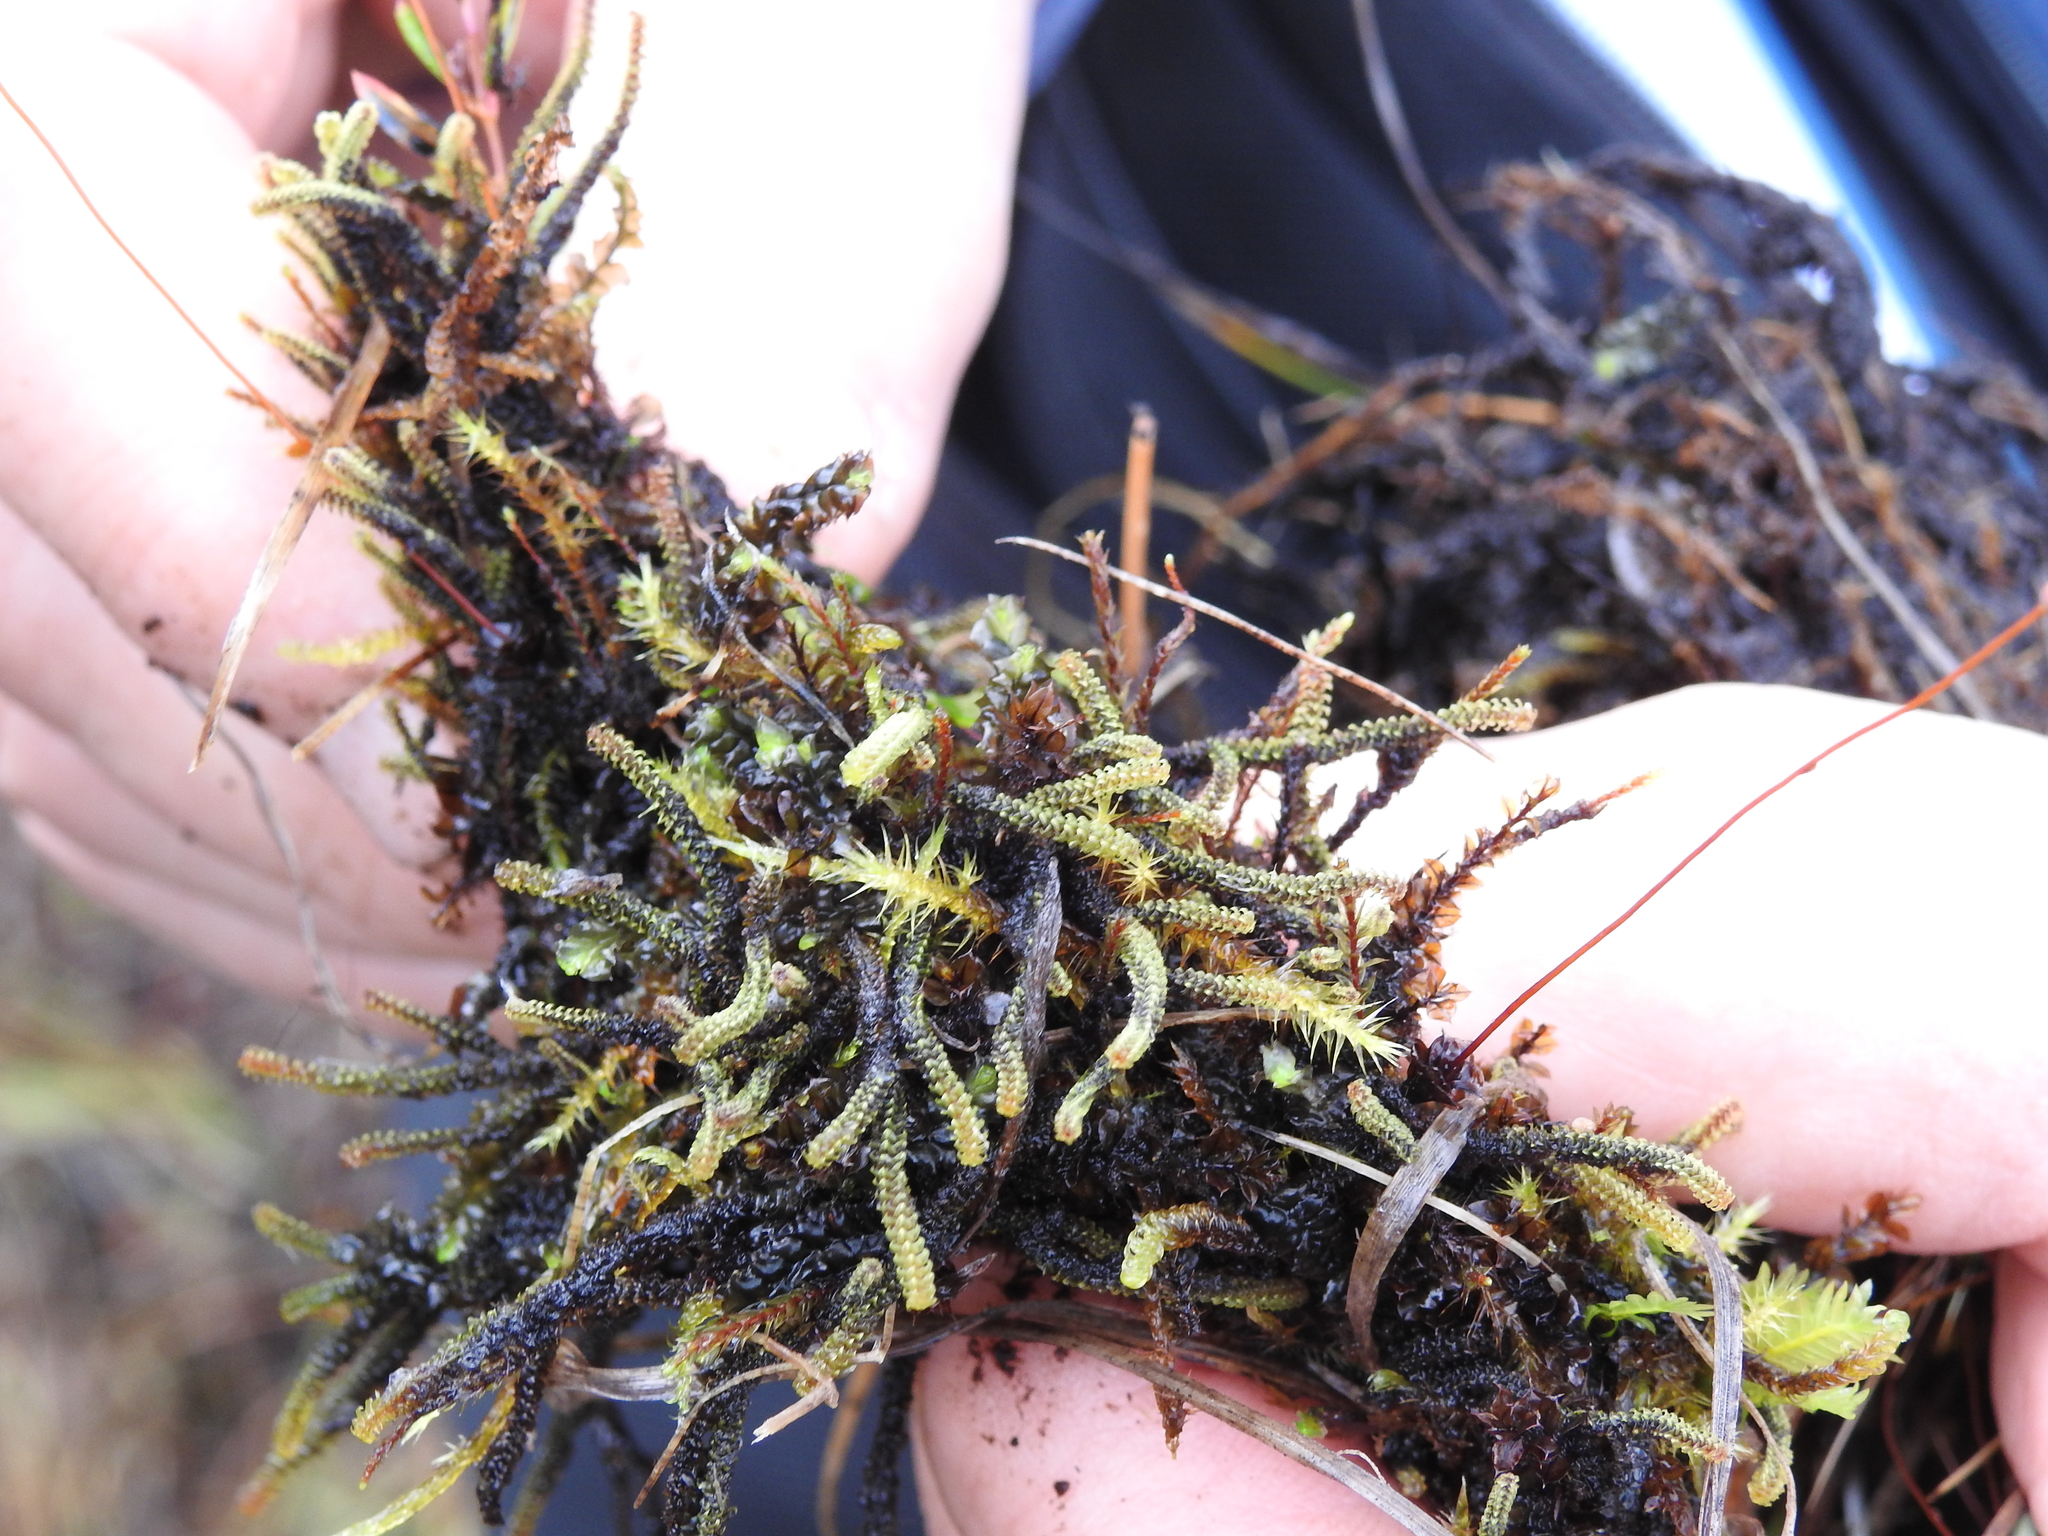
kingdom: Plantae
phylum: Bryophyta
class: Bryopsida
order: Splachnales
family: Meesiaceae
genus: Paludella
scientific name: Paludella squarrosa
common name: Tufted fen moss
